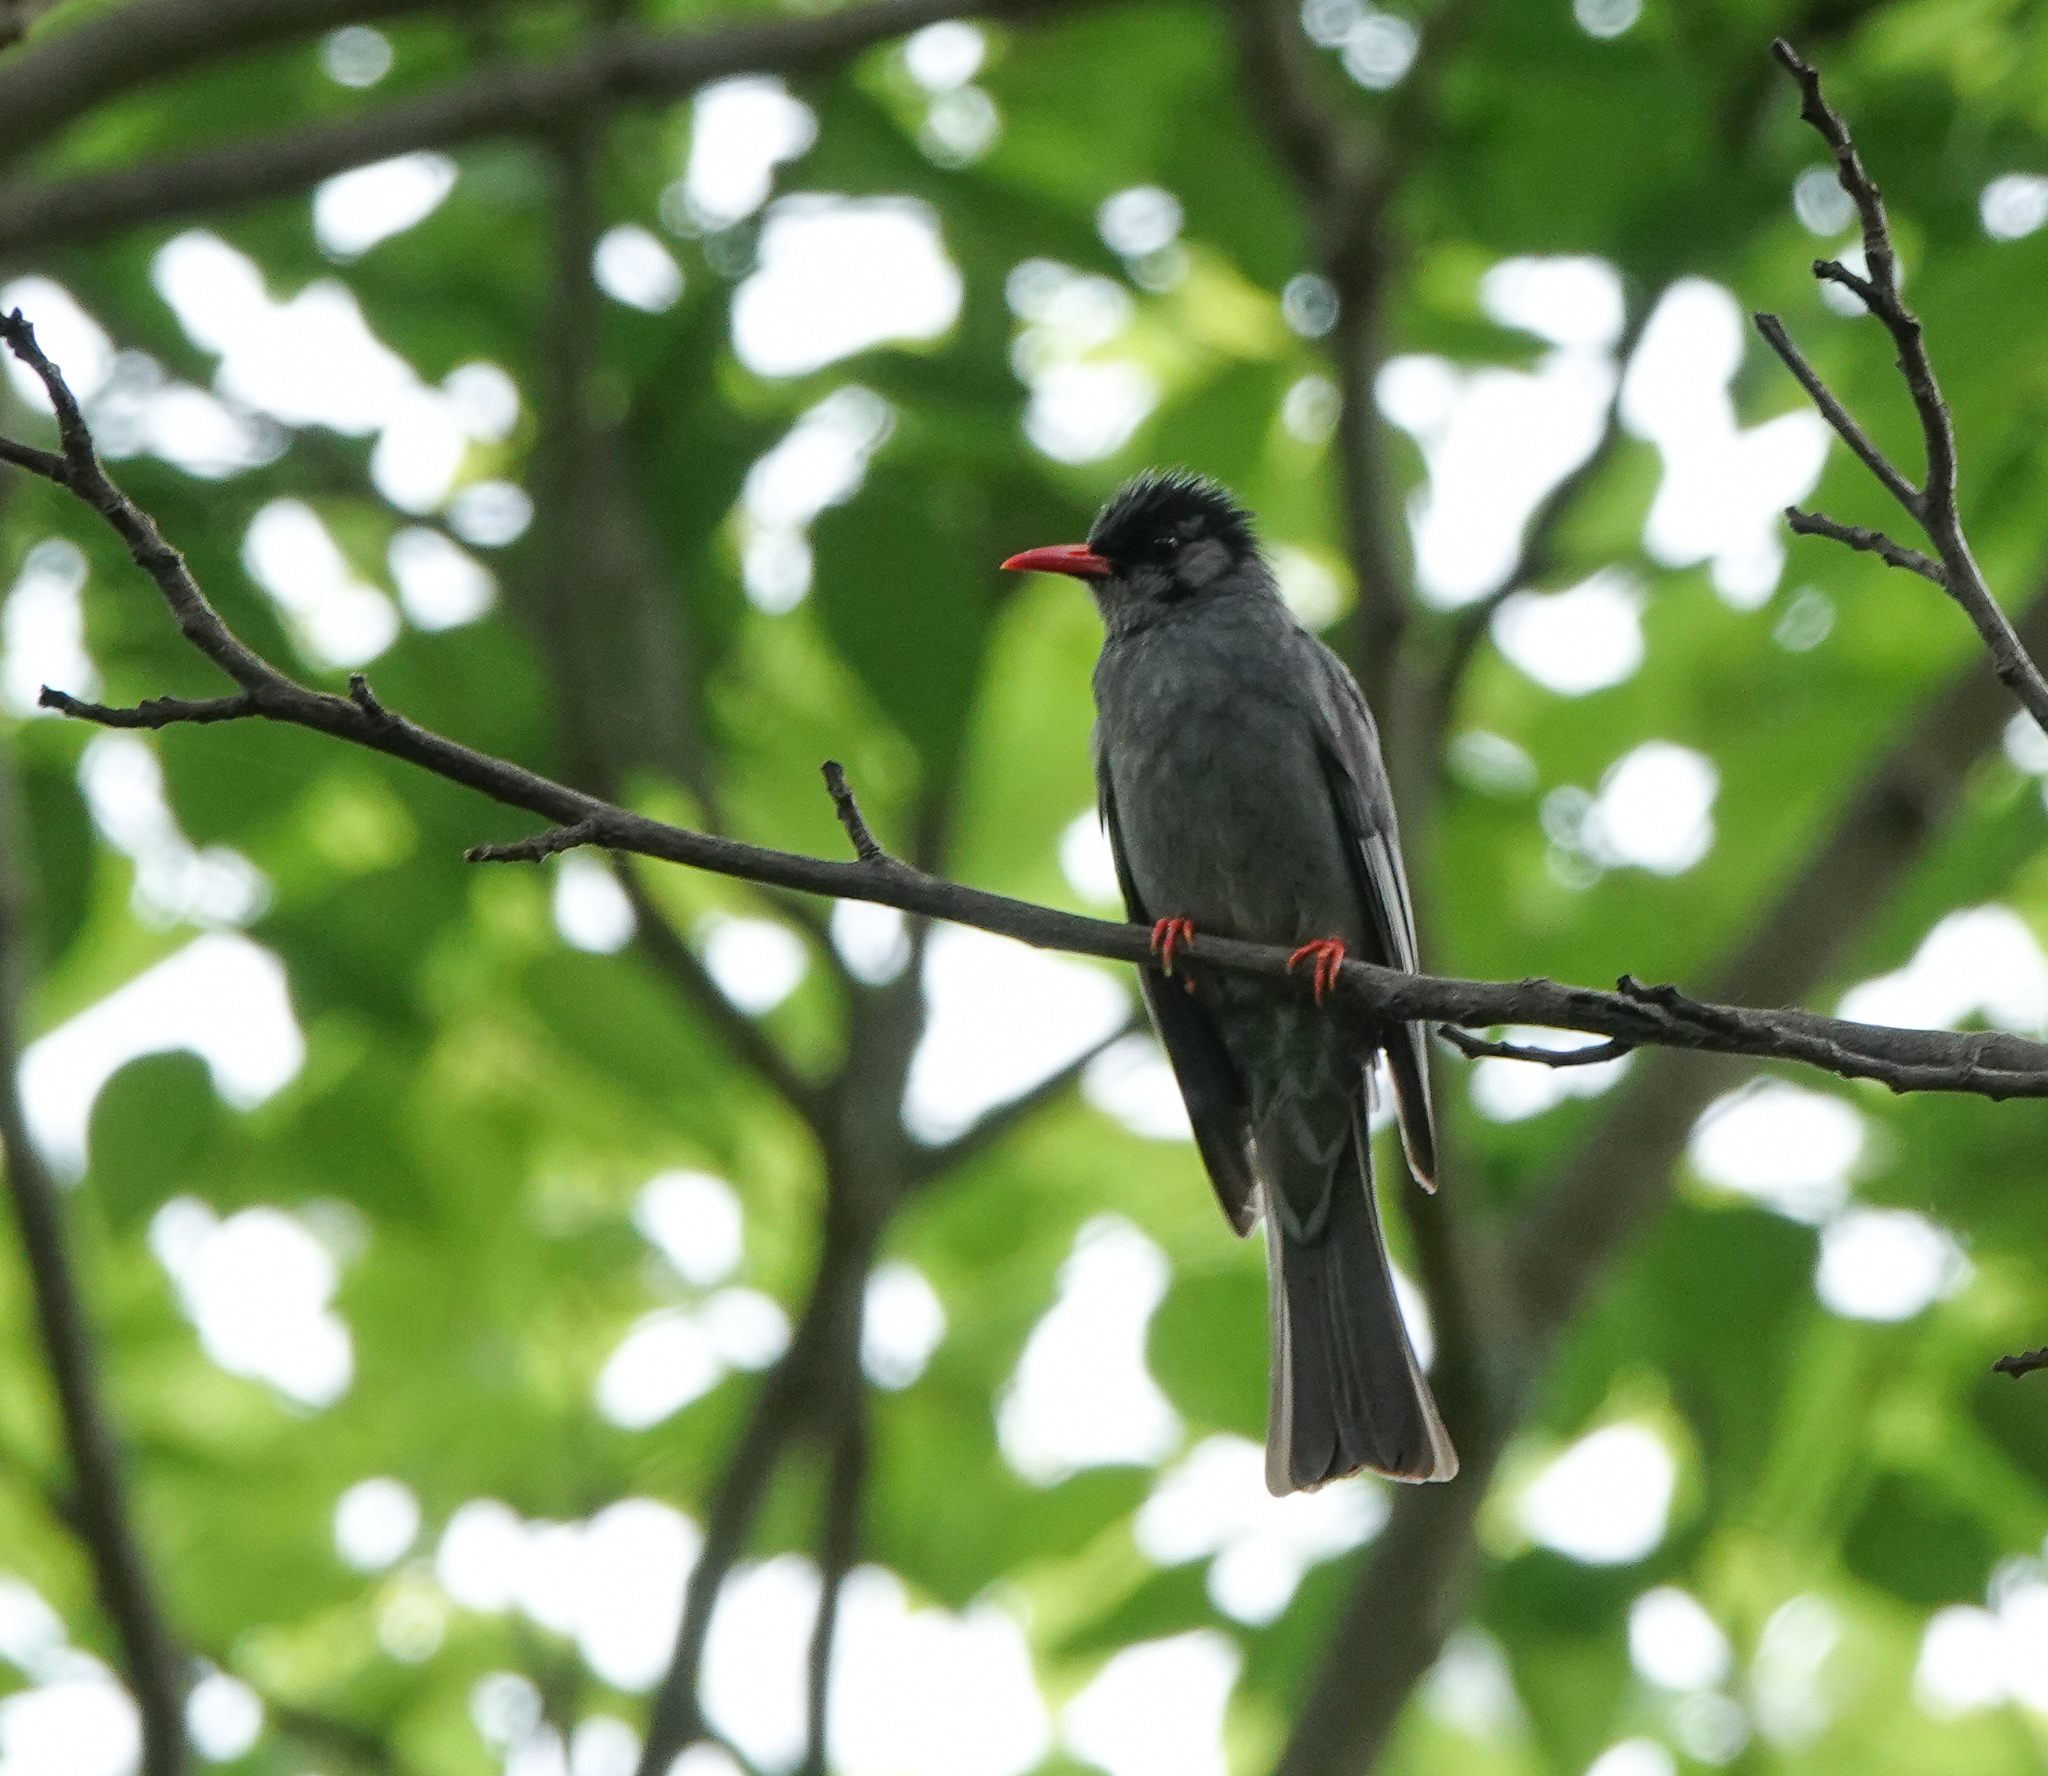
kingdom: Animalia
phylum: Chordata
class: Aves
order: Passeriformes
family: Pycnonotidae
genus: Hypsipetes
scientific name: Hypsipetes leucocephalus
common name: Black bulbul
